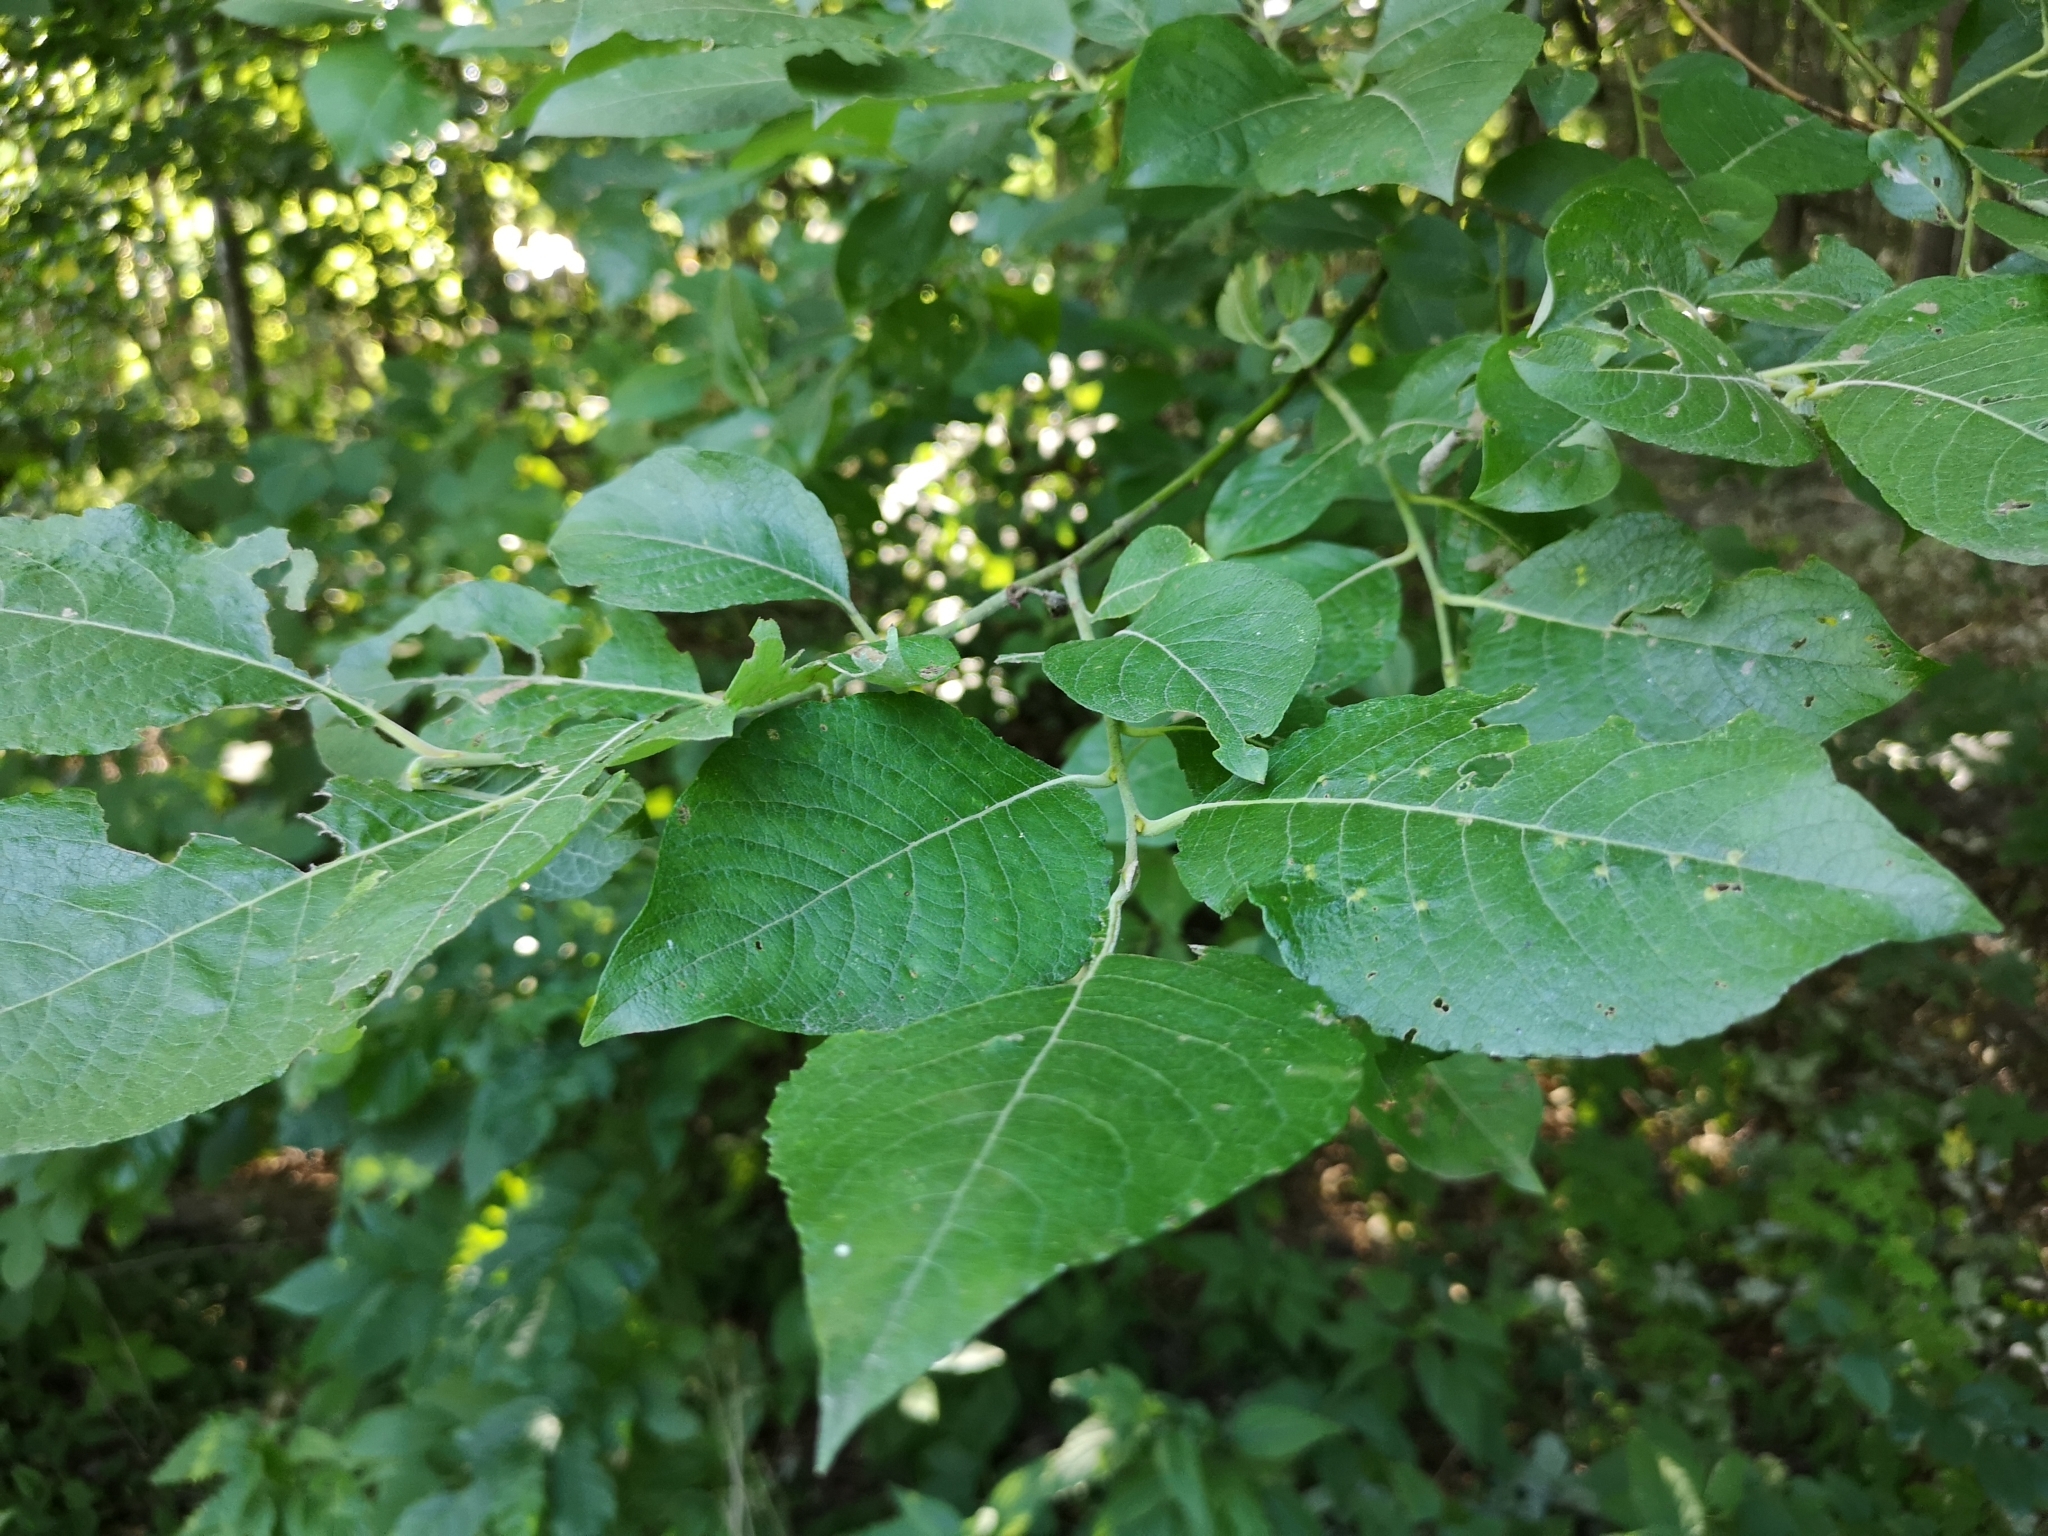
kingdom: Plantae
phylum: Tracheophyta
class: Magnoliopsida
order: Malpighiales
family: Salicaceae
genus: Salix
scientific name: Salix caprea
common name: Goat willow
